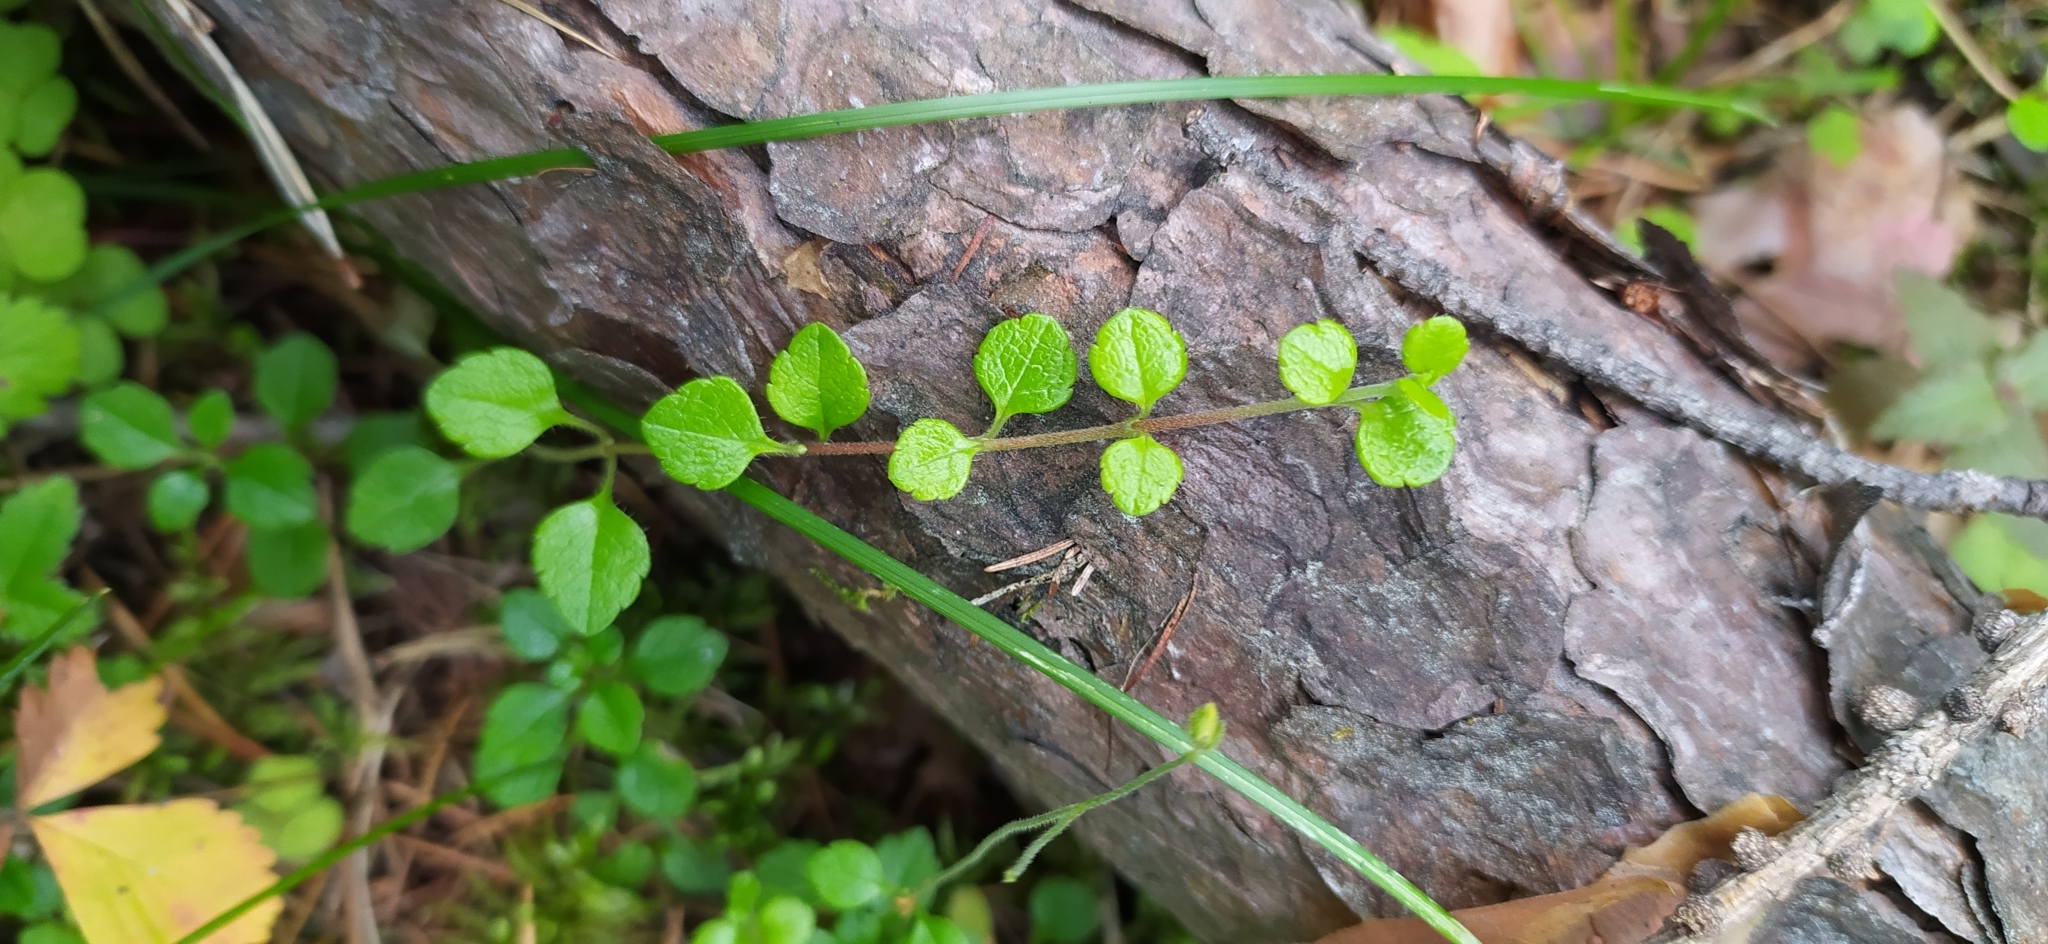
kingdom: Plantae
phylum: Tracheophyta
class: Magnoliopsida
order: Dipsacales
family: Caprifoliaceae
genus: Linnaea
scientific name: Linnaea borealis
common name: Twinflower
